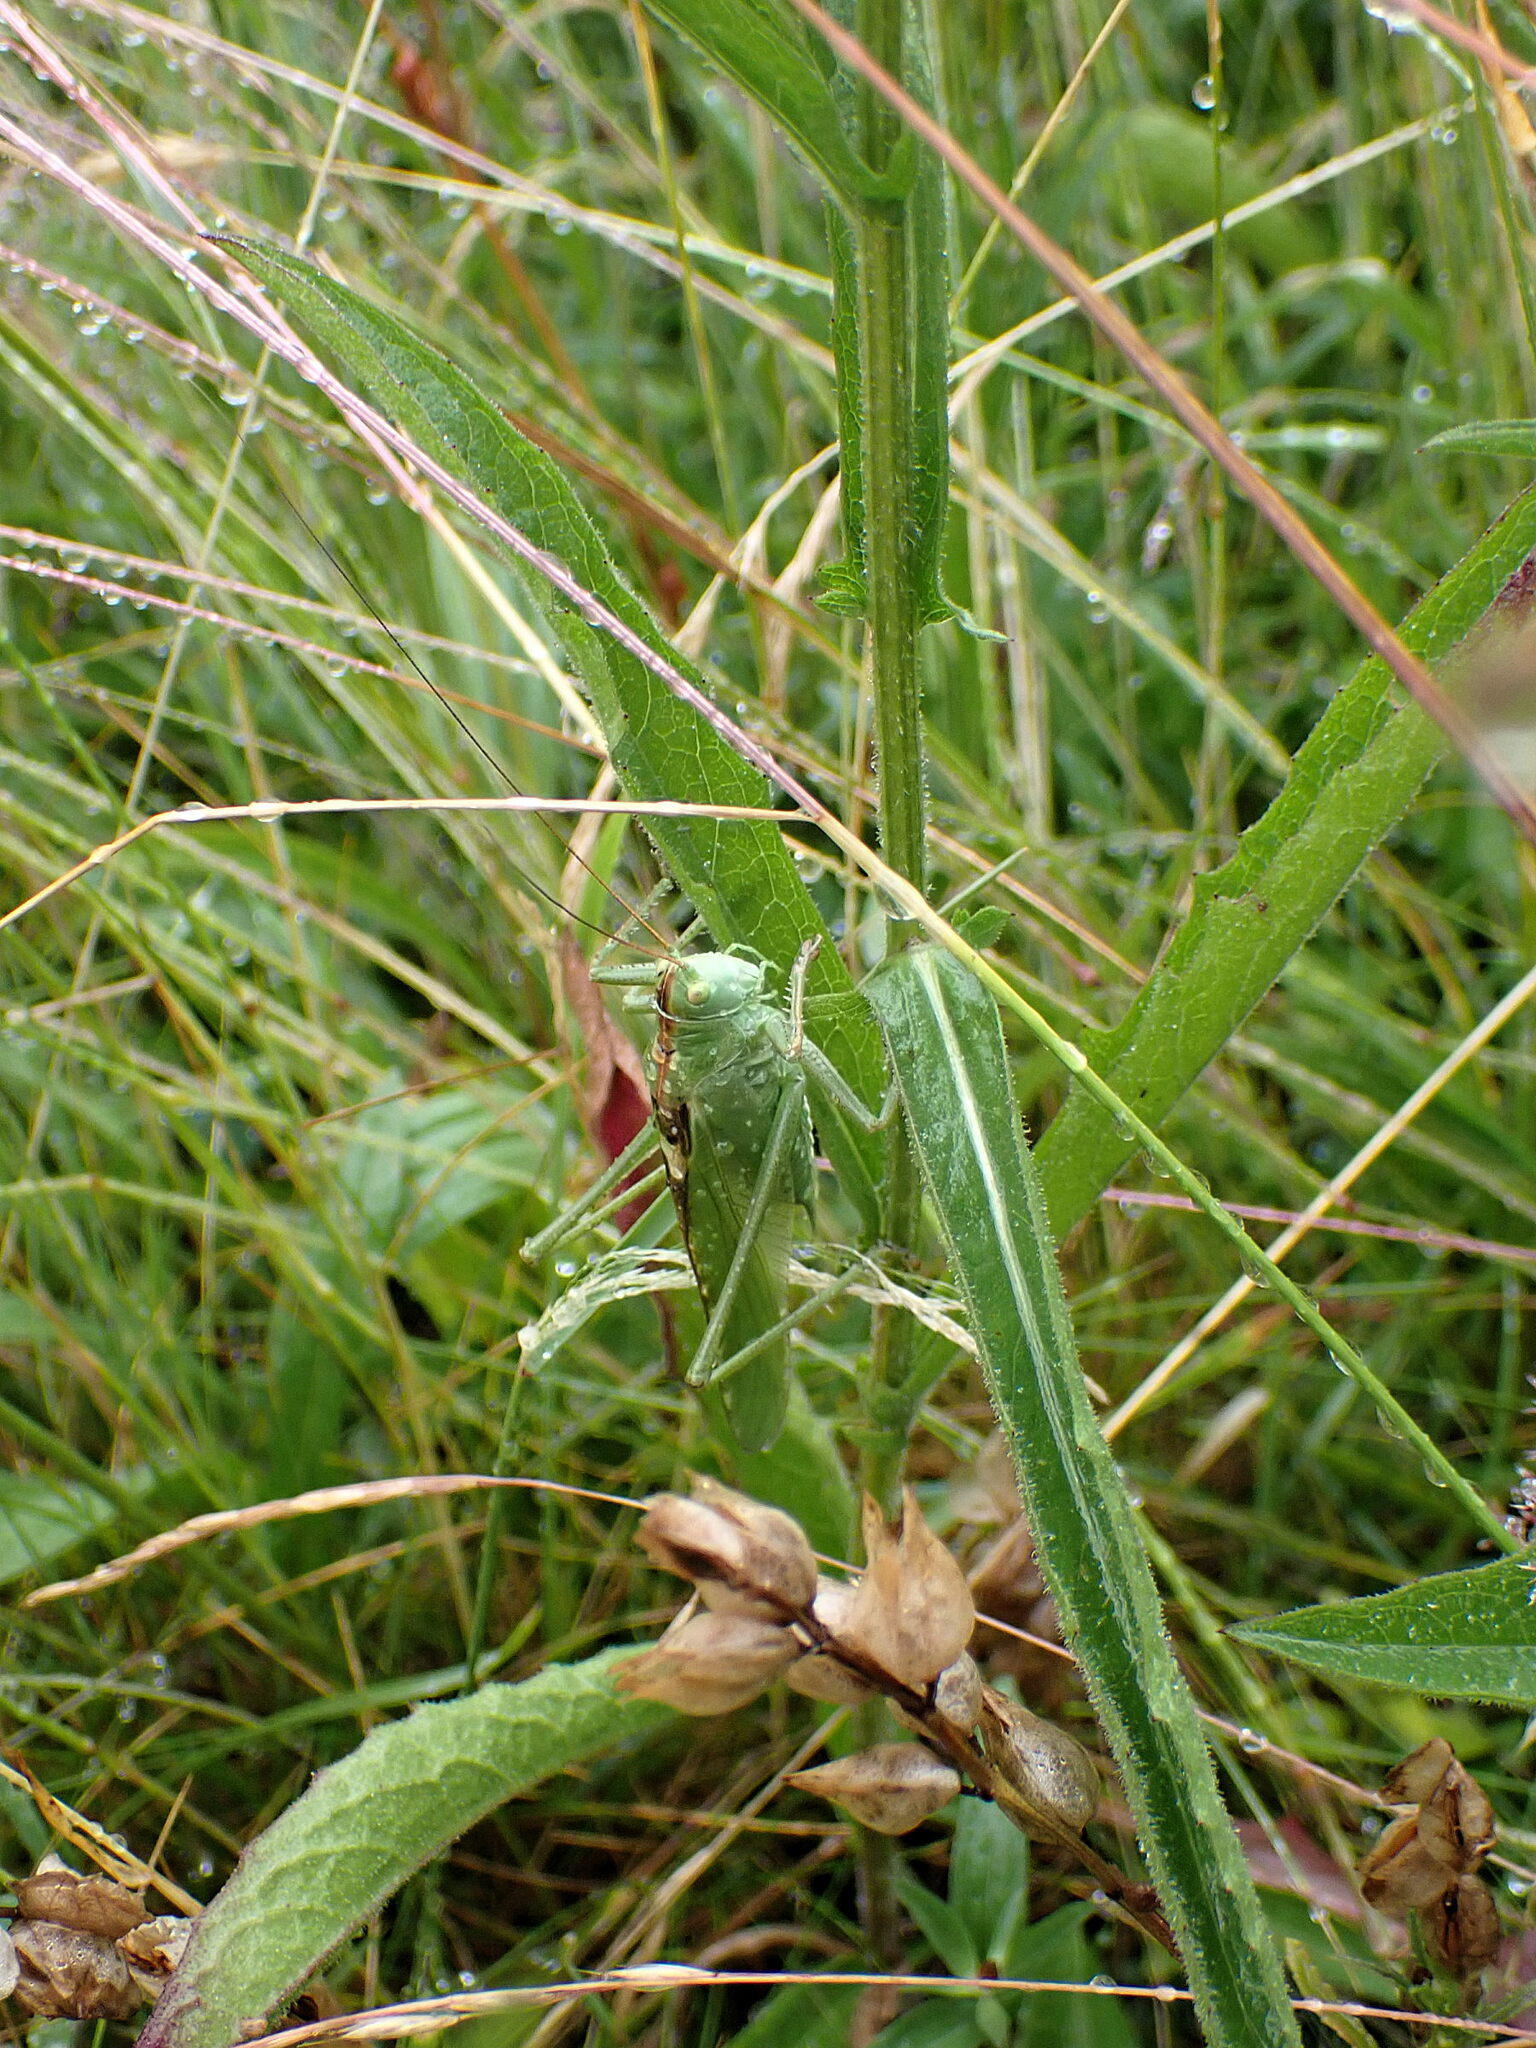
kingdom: Animalia
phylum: Arthropoda
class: Insecta
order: Orthoptera
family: Tettigoniidae
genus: Tettigonia
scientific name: Tettigonia viridissima
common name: Great green bush-cricket
